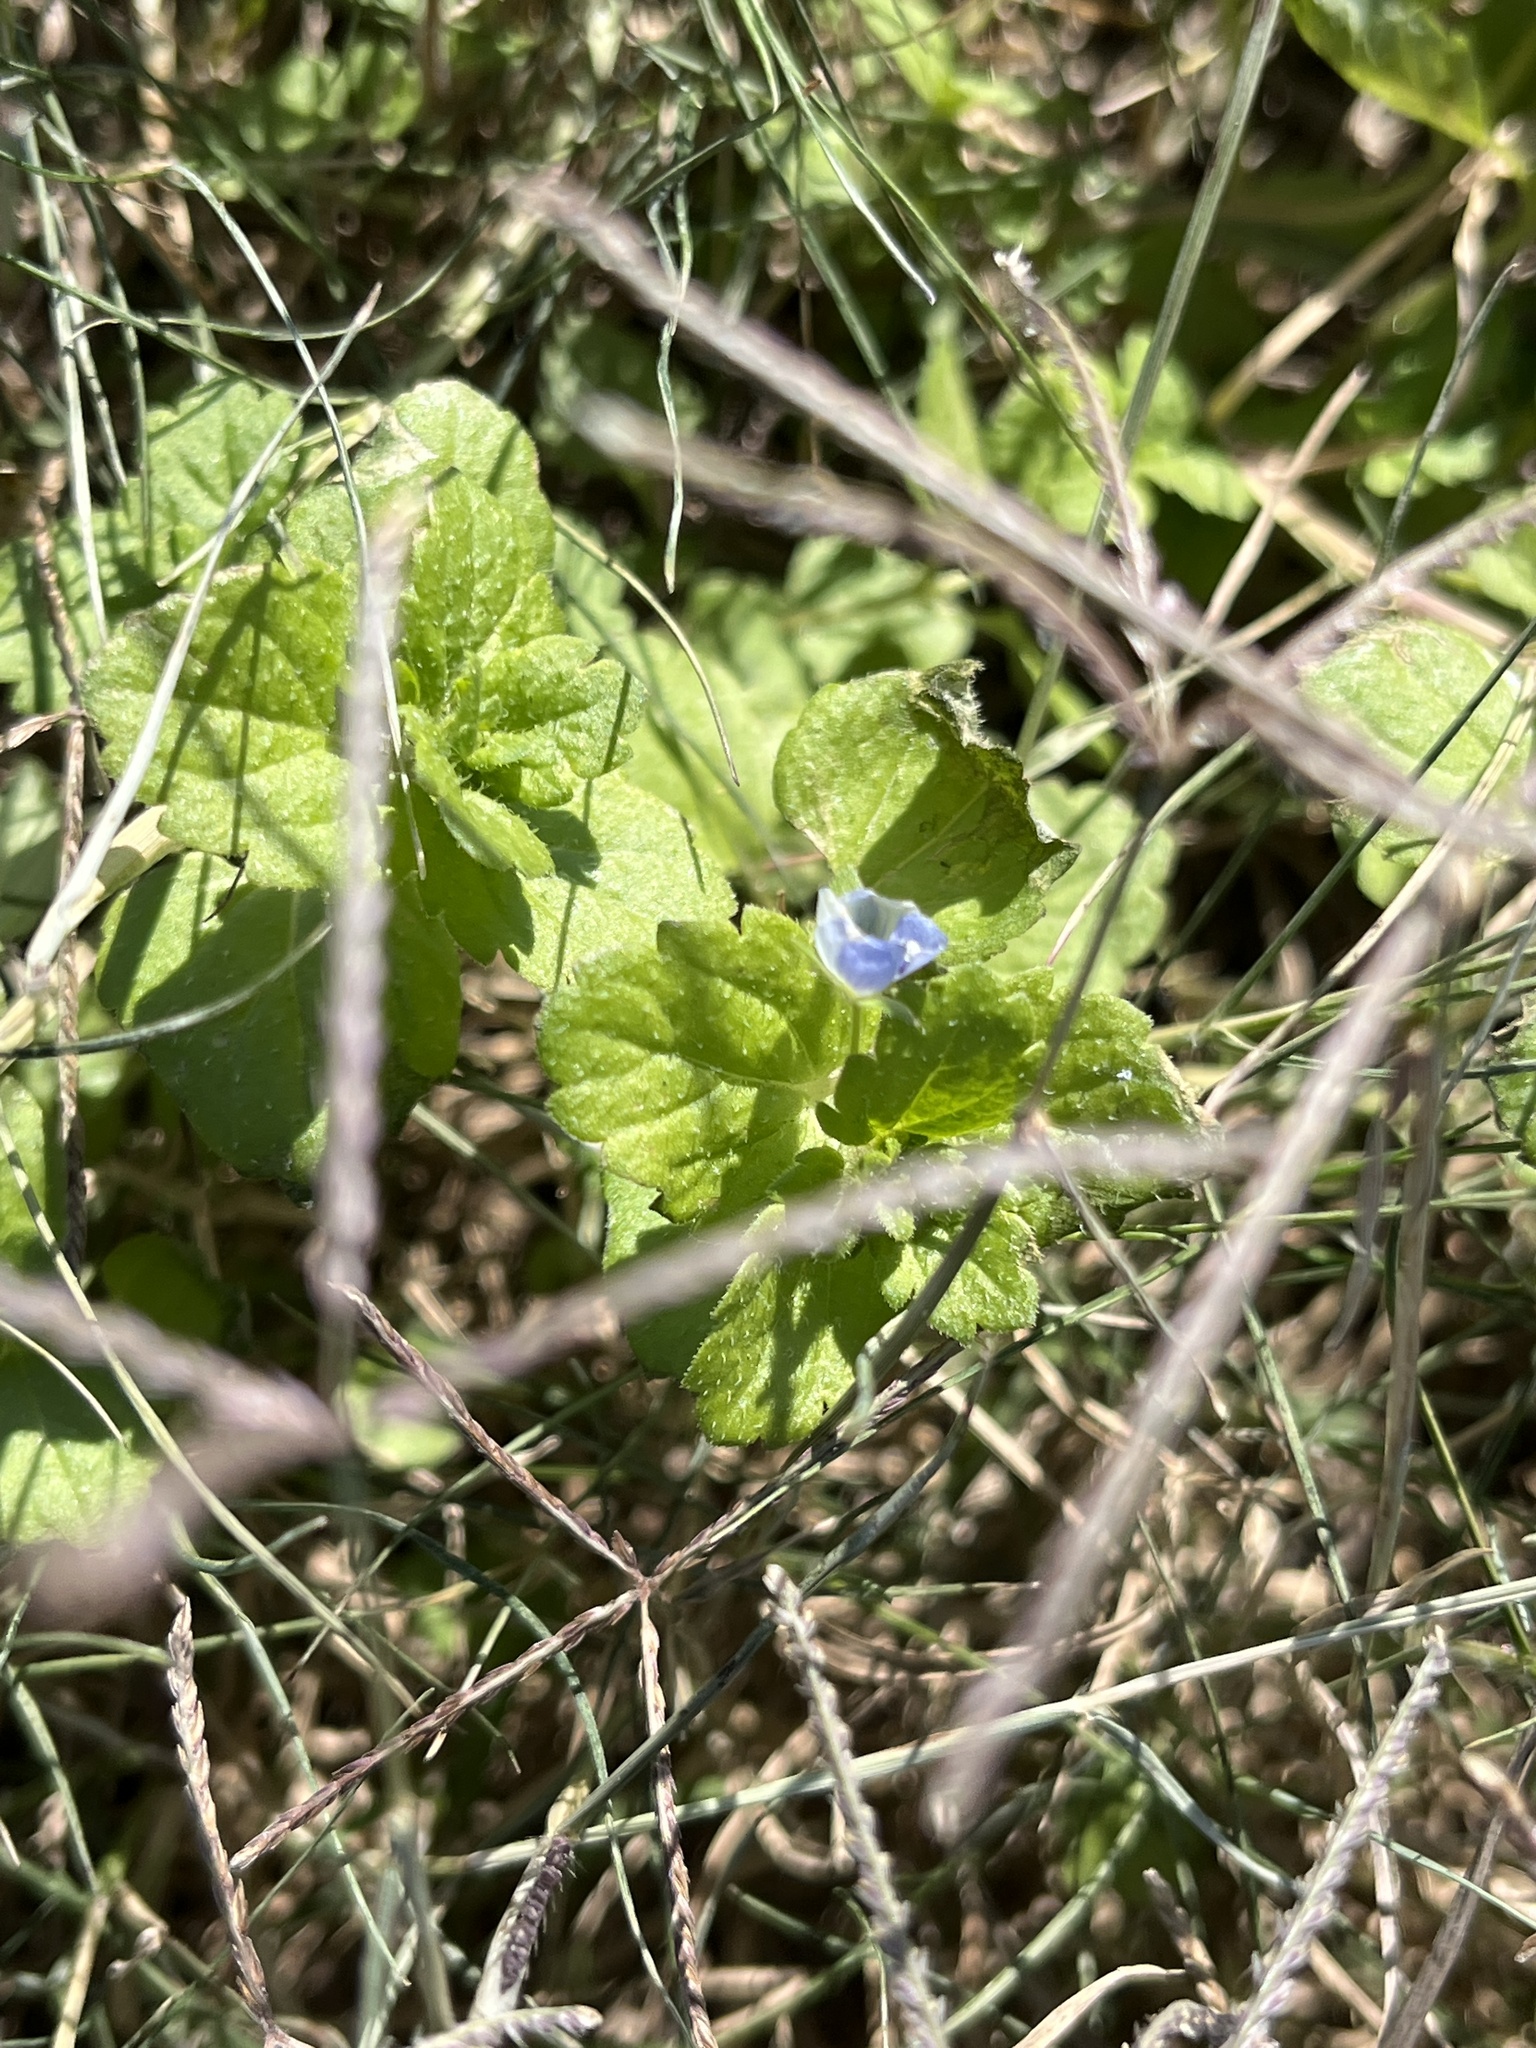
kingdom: Plantae
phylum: Tracheophyta
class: Magnoliopsida
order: Lamiales
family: Plantaginaceae
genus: Veronica
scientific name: Veronica persica
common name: Common field-speedwell
